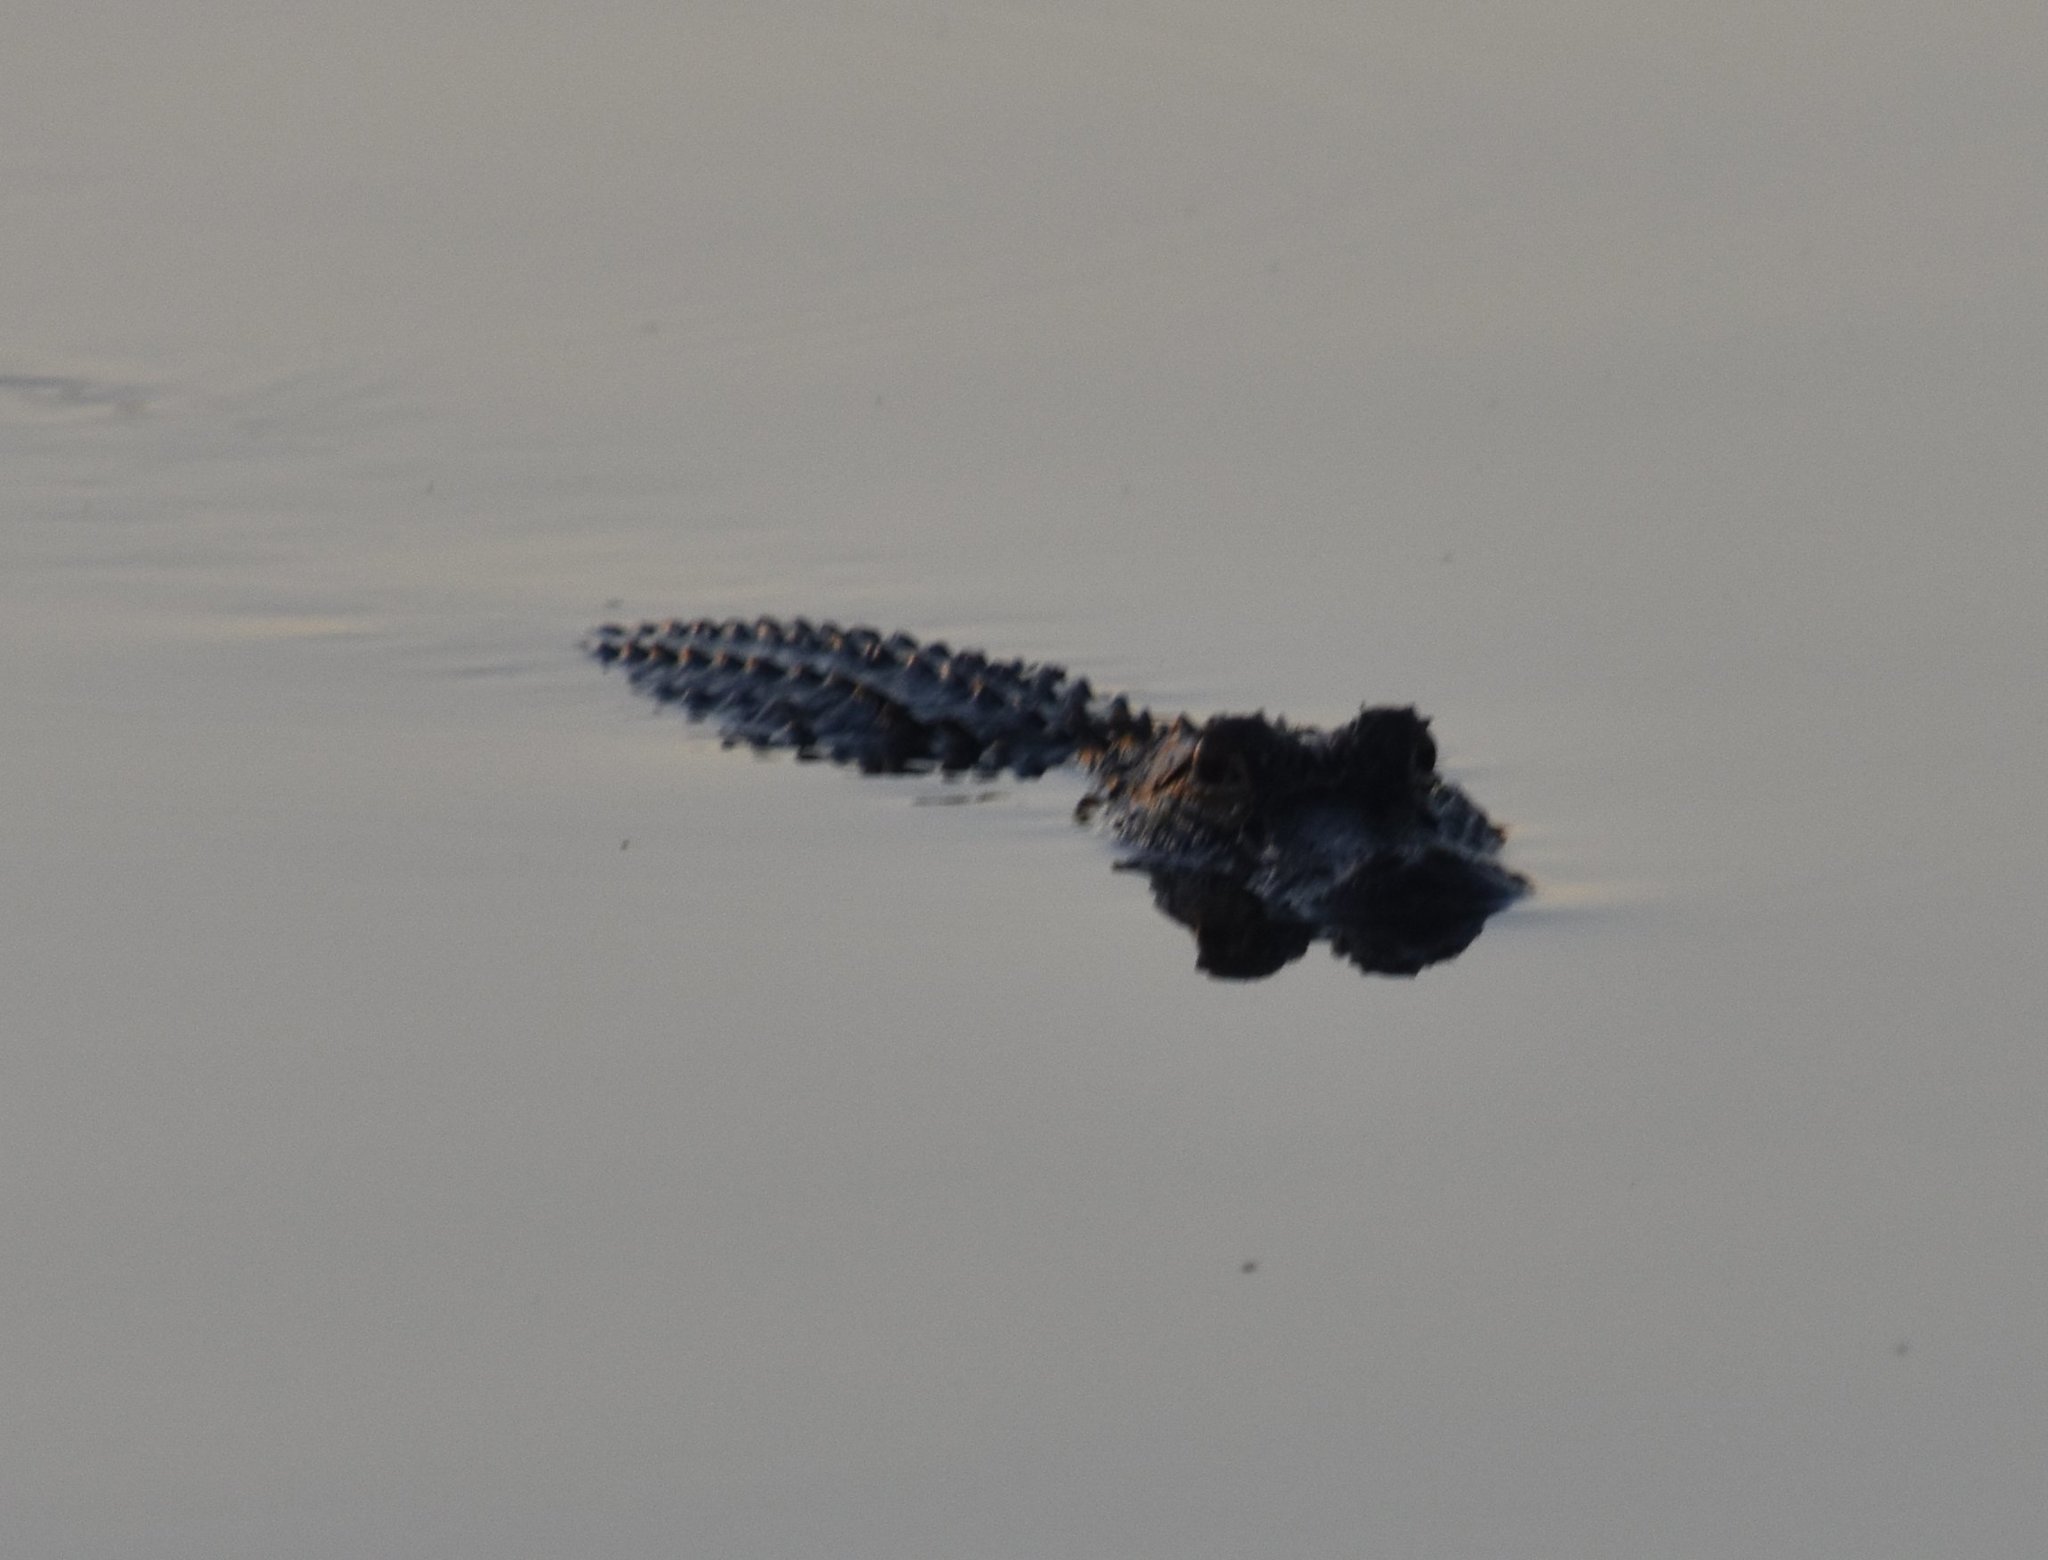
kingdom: Animalia
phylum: Chordata
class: Crocodylia
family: Alligatoridae
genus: Alligator
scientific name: Alligator mississippiensis
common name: American alligator
